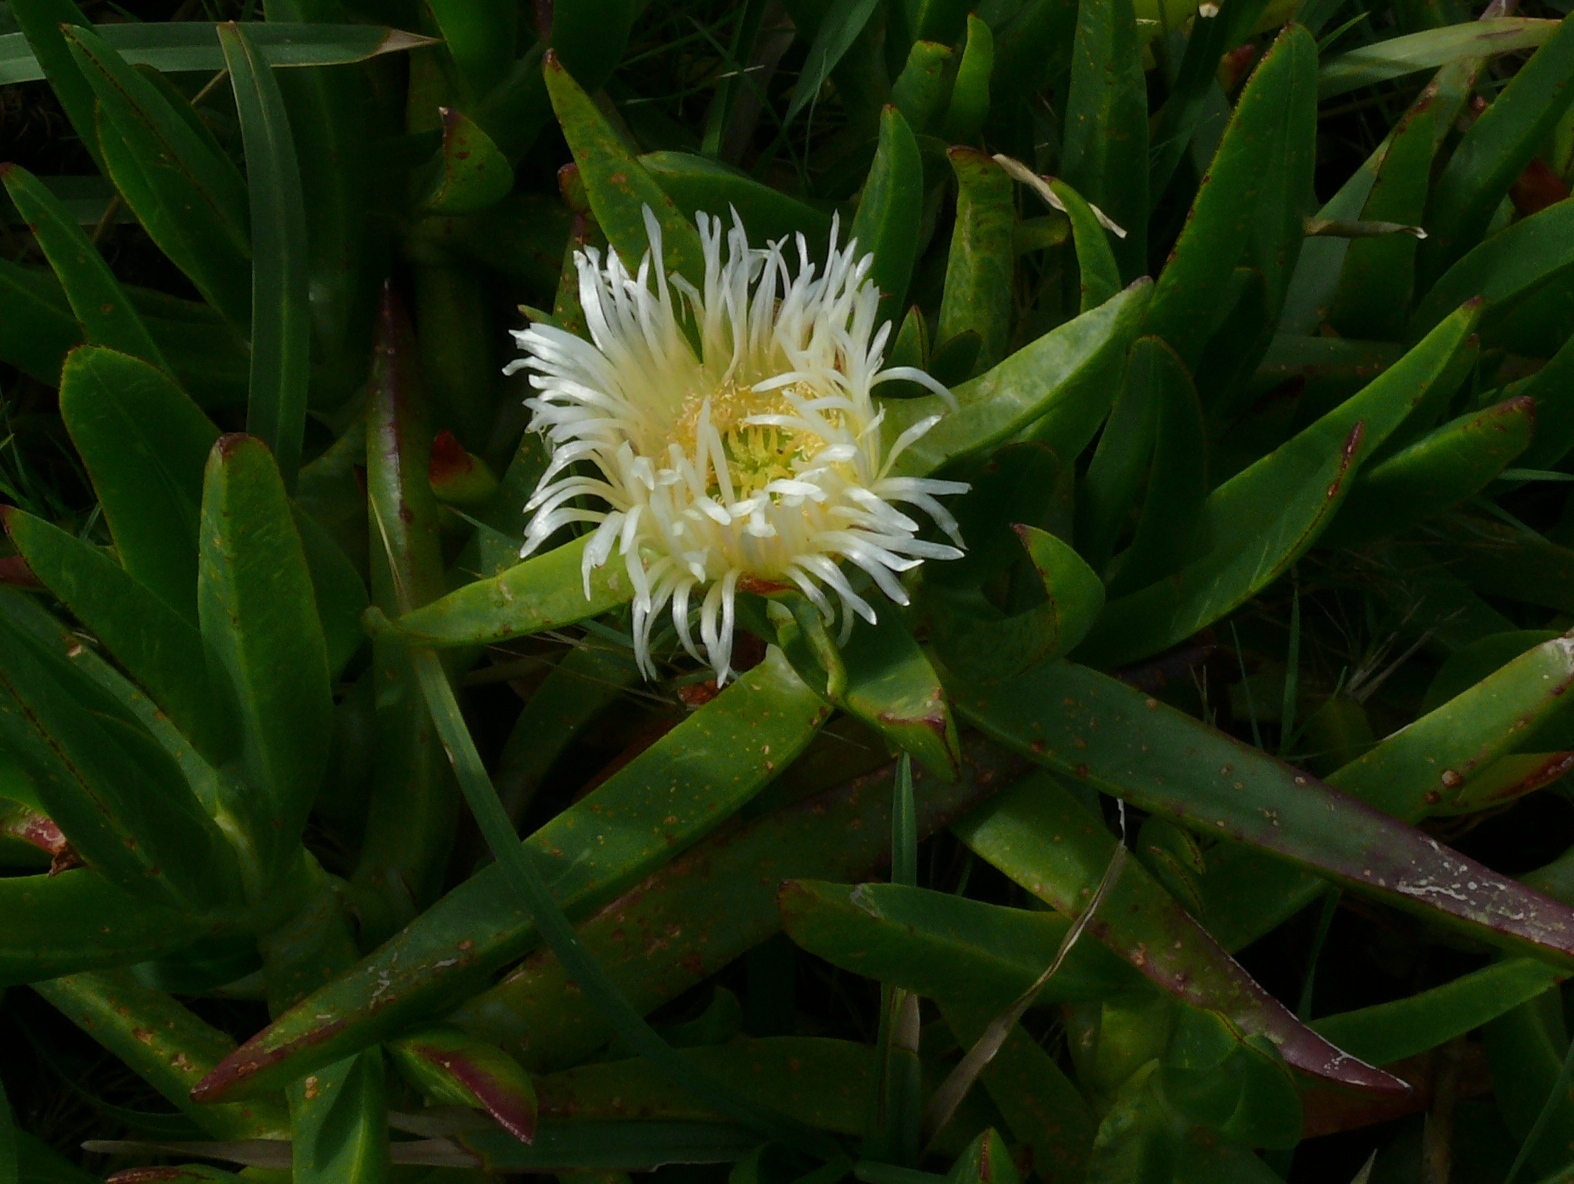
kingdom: Plantae
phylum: Tracheophyta
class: Magnoliopsida
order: Caryophyllales
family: Aizoaceae
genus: Carpobrotus
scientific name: Carpobrotus edulis
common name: Hottentot-fig
